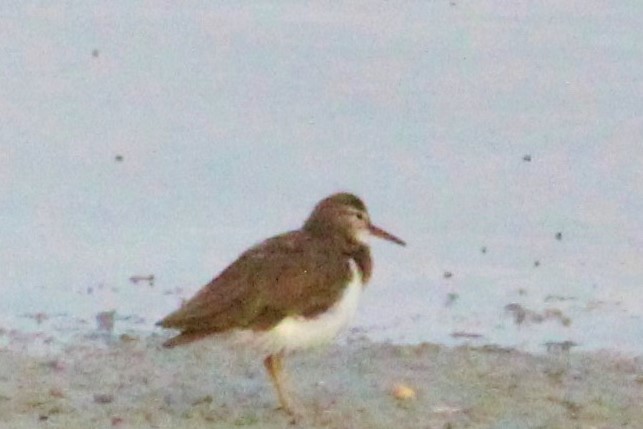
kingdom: Animalia
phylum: Chordata
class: Aves
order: Charadriiformes
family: Scolopacidae
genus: Actitis
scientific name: Actitis macularius
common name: Spotted sandpiper
